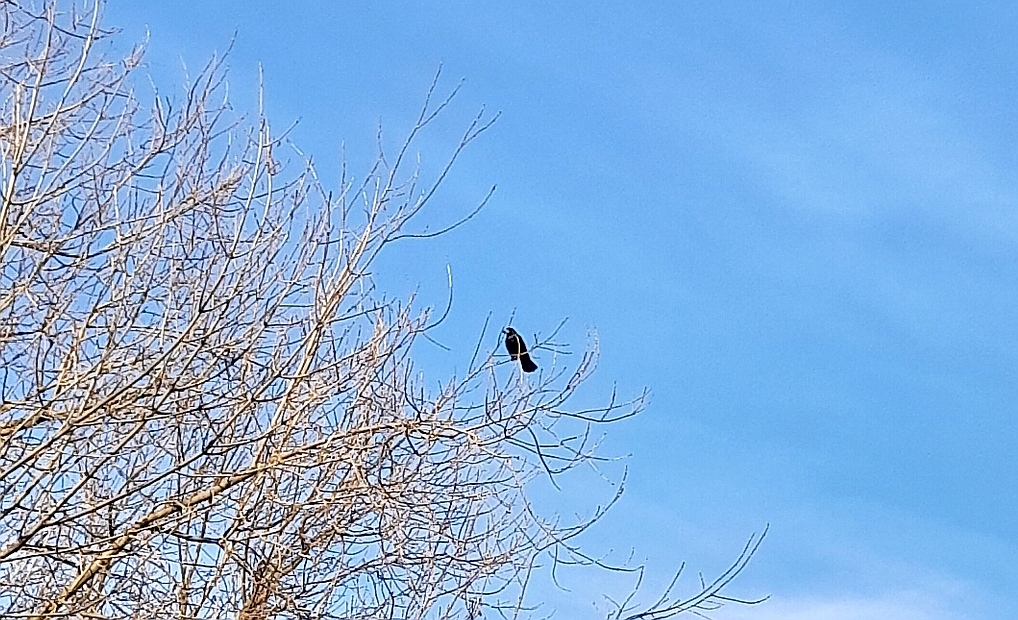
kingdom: Animalia
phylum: Chordata
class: Aves
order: Passeriformes
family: Corvidae
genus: Corvus
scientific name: Corvus frugilegus
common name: Rook
